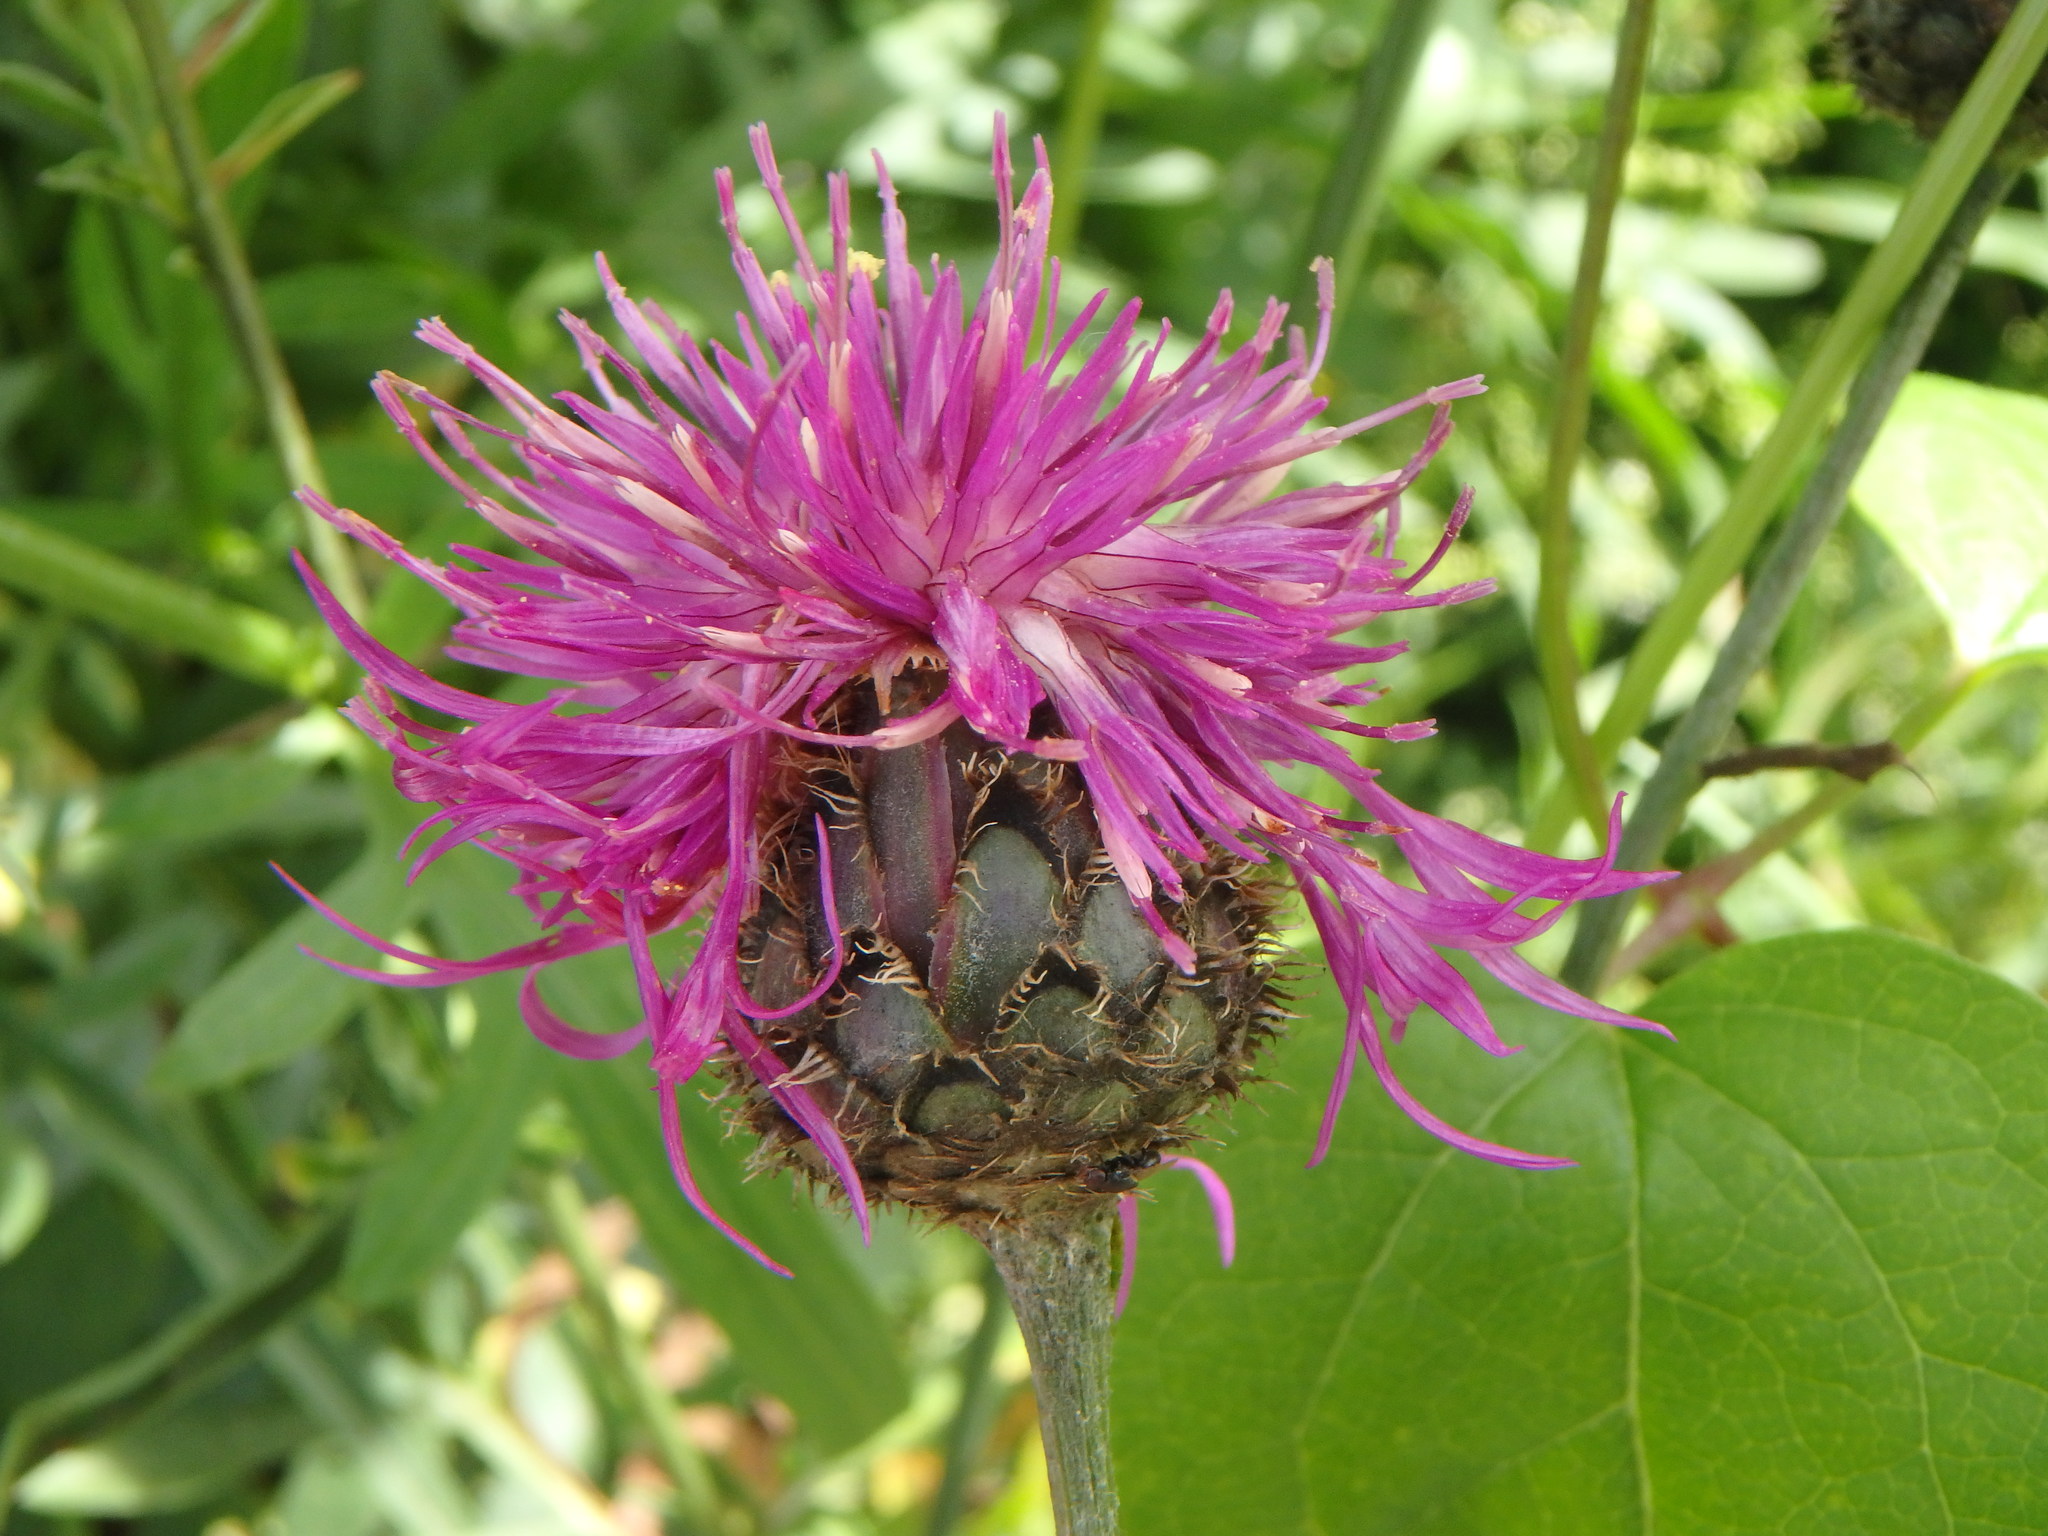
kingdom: Plantae
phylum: Tracheophyta
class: Magnoliopsida
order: Asterales
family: Asteraceae
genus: Centaurea
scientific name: Centaurea scabiosa
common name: Greater knapweed
